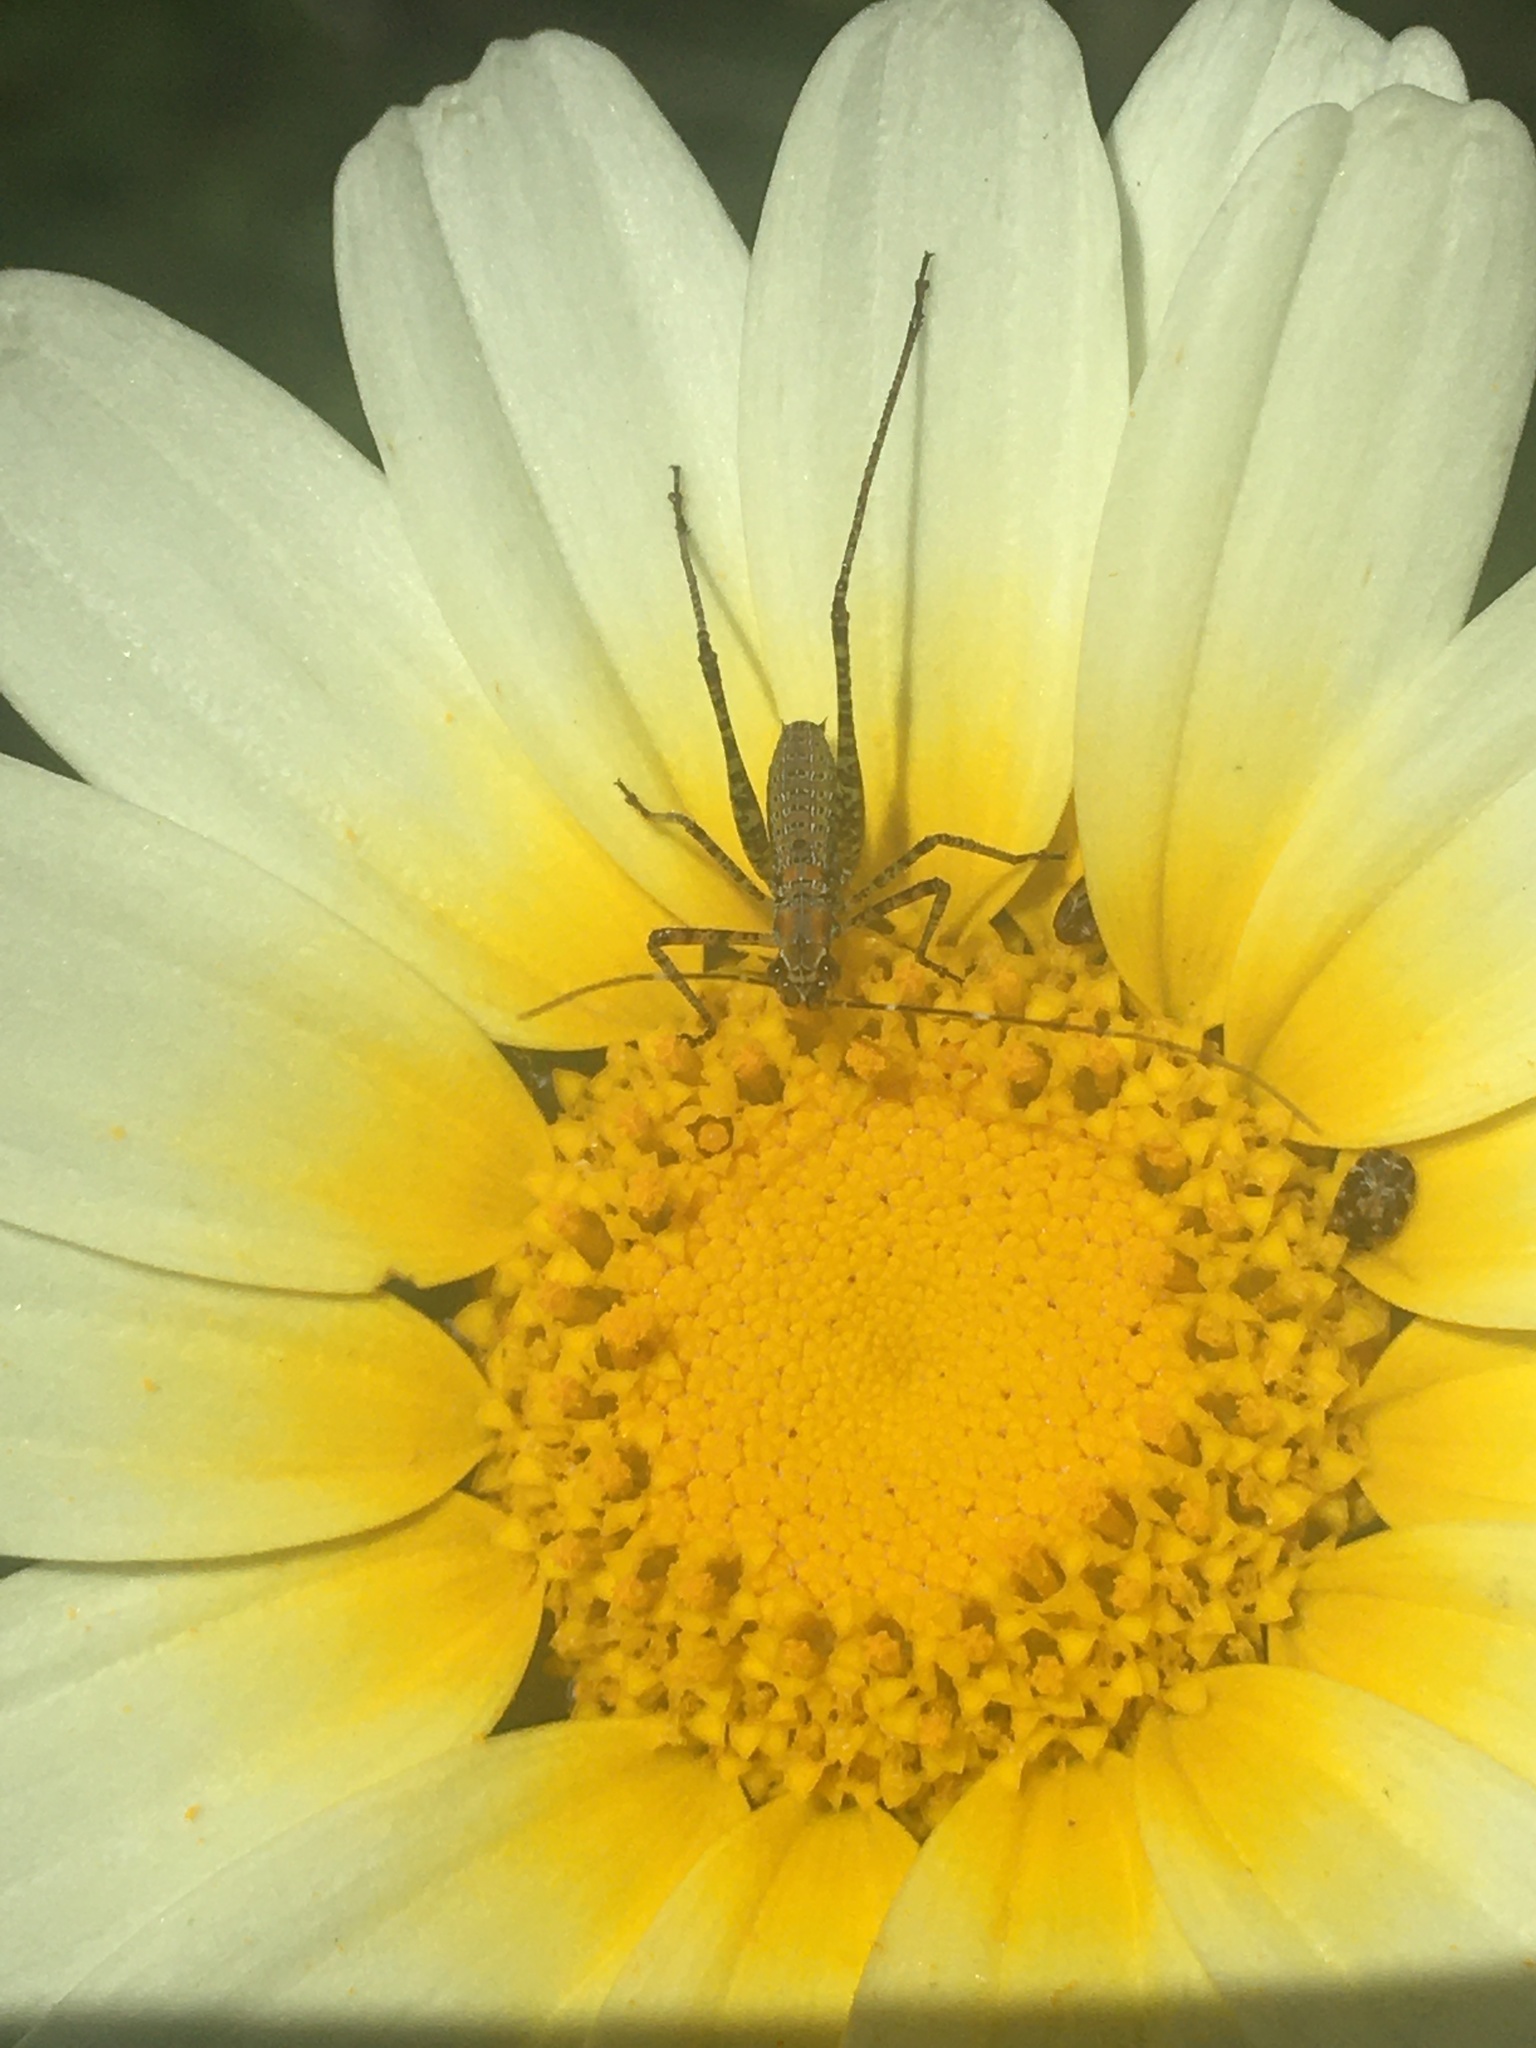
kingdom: Animalia
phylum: Arthropoda
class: Insecta
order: Orthoptera
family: Tettigoniidae
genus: Scudderia
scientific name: Scudderia
